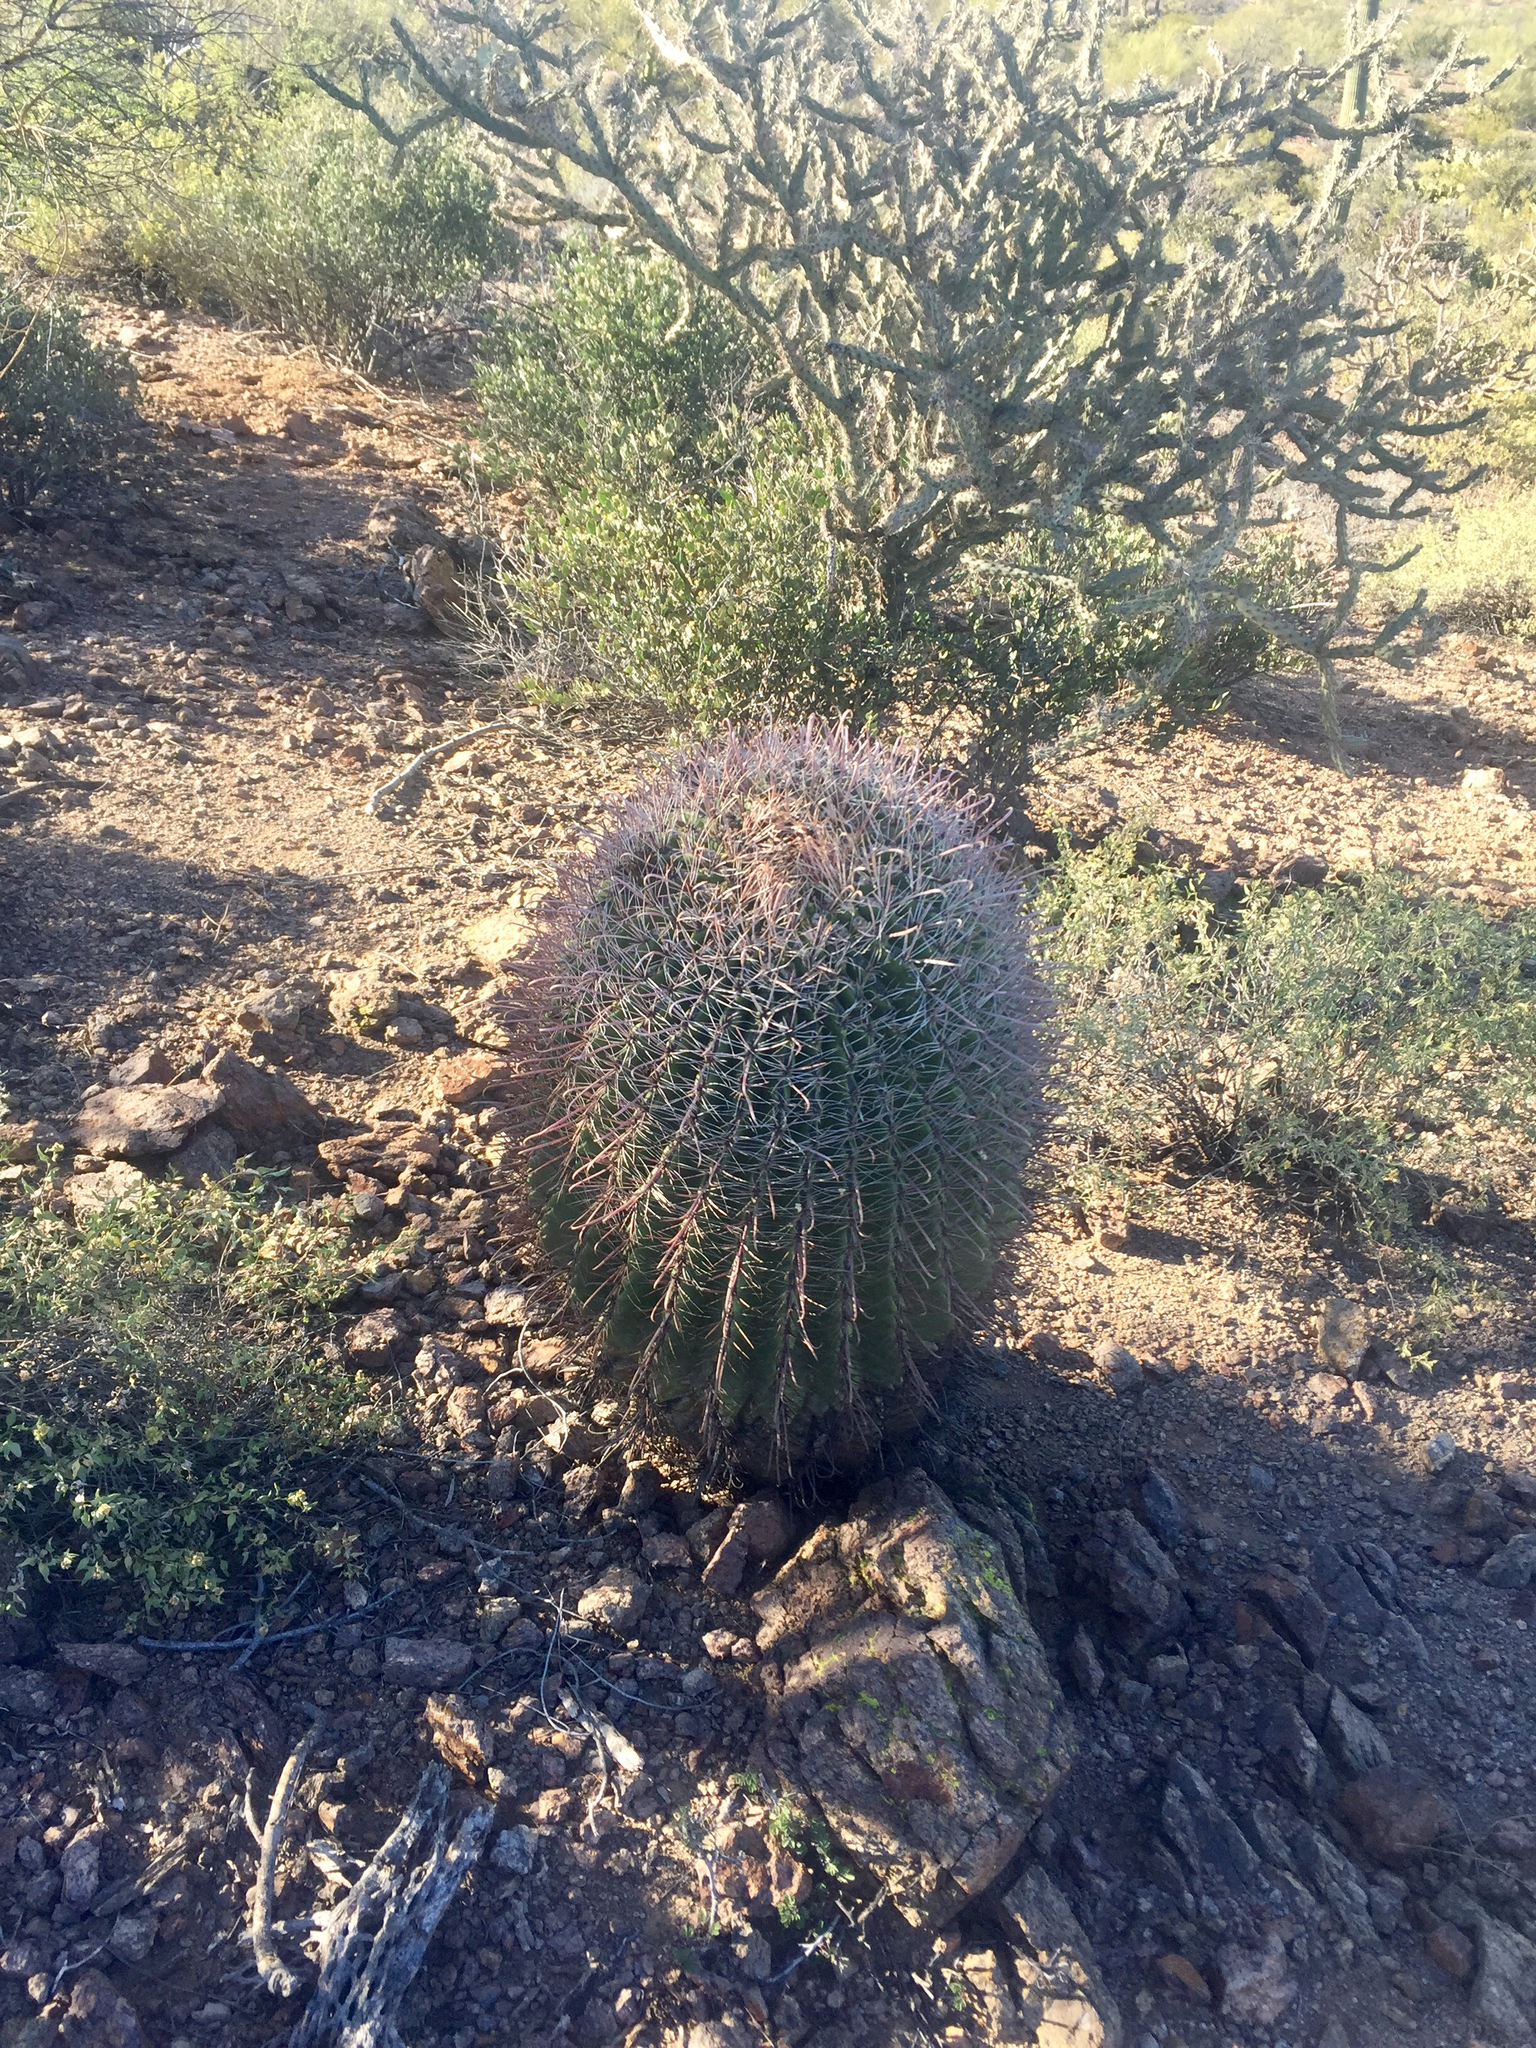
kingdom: Plantae
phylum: Tracheophyta
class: Magnoliopsida
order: Caryophyllales
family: Cactaceae
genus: Ferocactus
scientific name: Ferocactus wislizeni
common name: Candy barrel cactus
